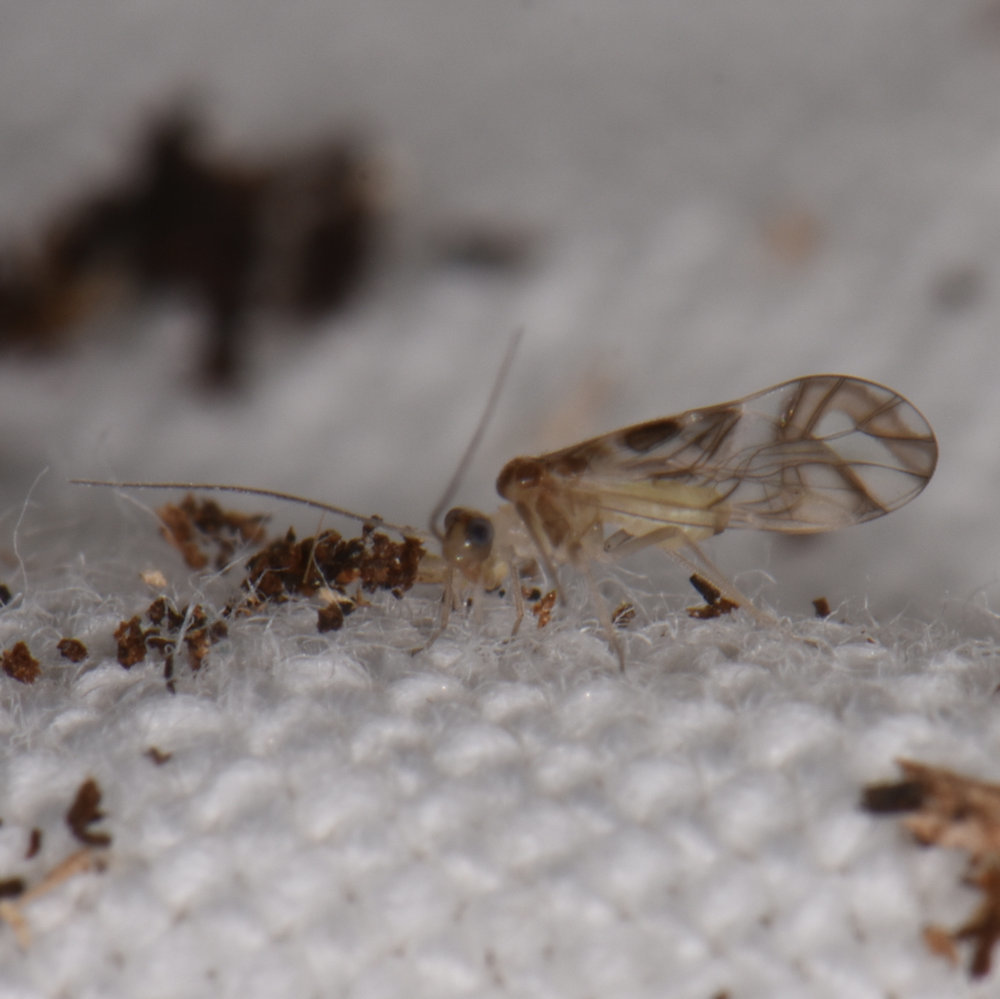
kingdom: Animalia
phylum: Arthropoda
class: Insecta
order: Psocodea
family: Stenopsocidae
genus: Graphopsocus
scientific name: Graphopsocus cruciatus
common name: Lizard bark louse
